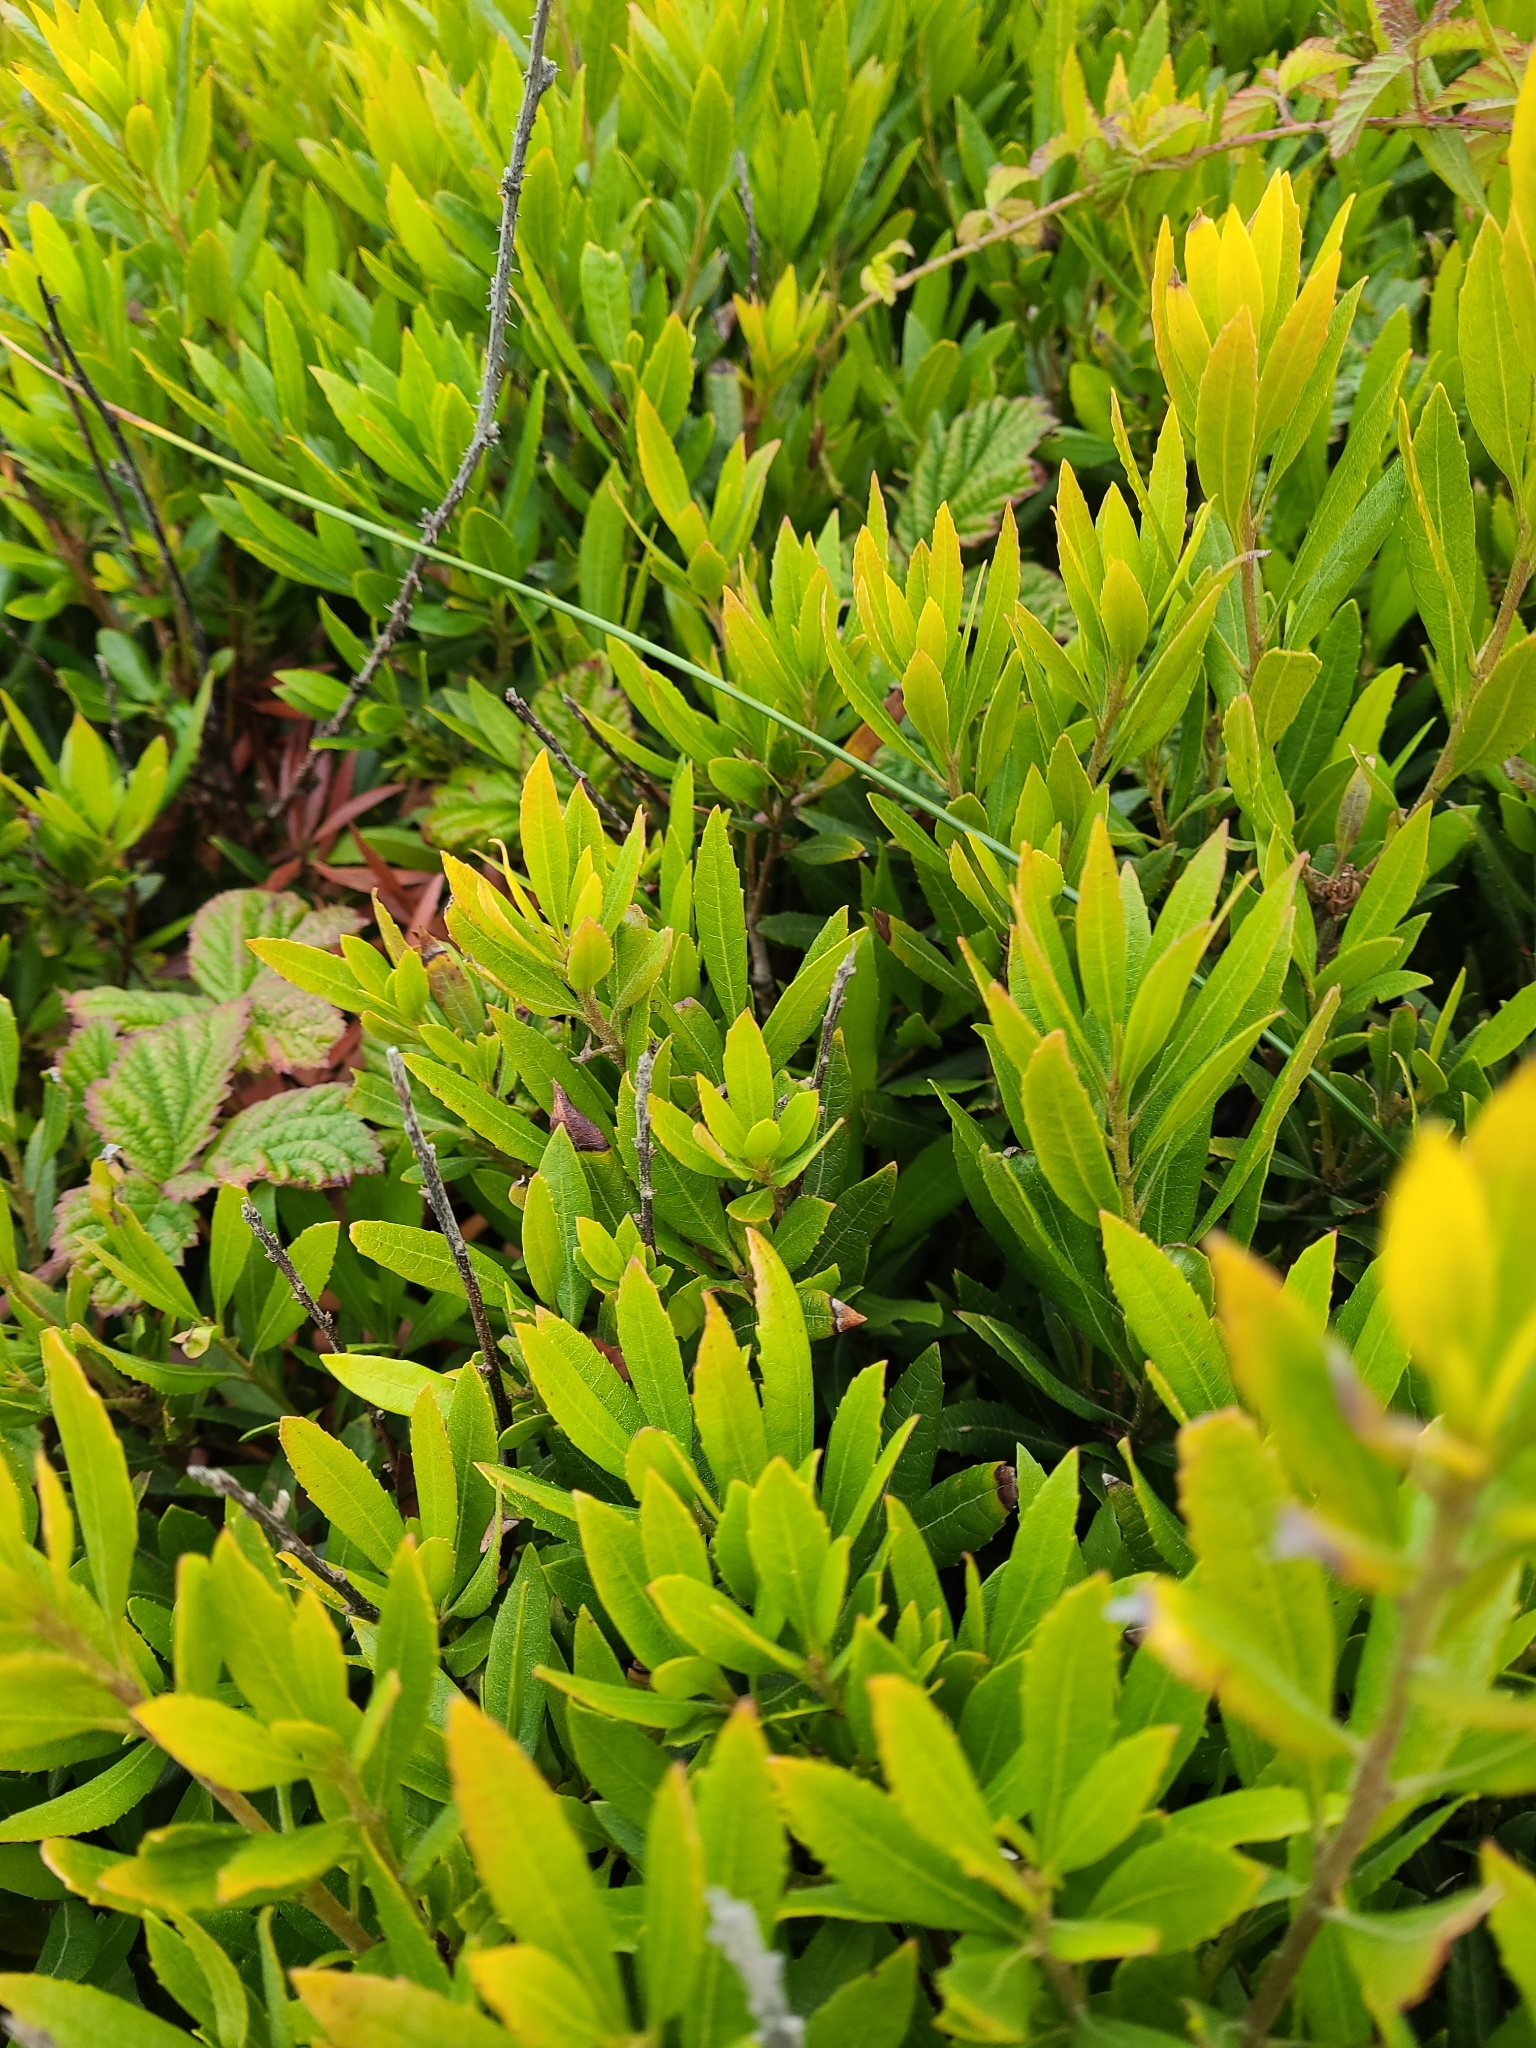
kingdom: Plantae
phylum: Tracheophyta
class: Magnoliopsida
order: Fagales
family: Myricaceae
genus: Morella
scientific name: Morella californica
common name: California wax-myrtle
